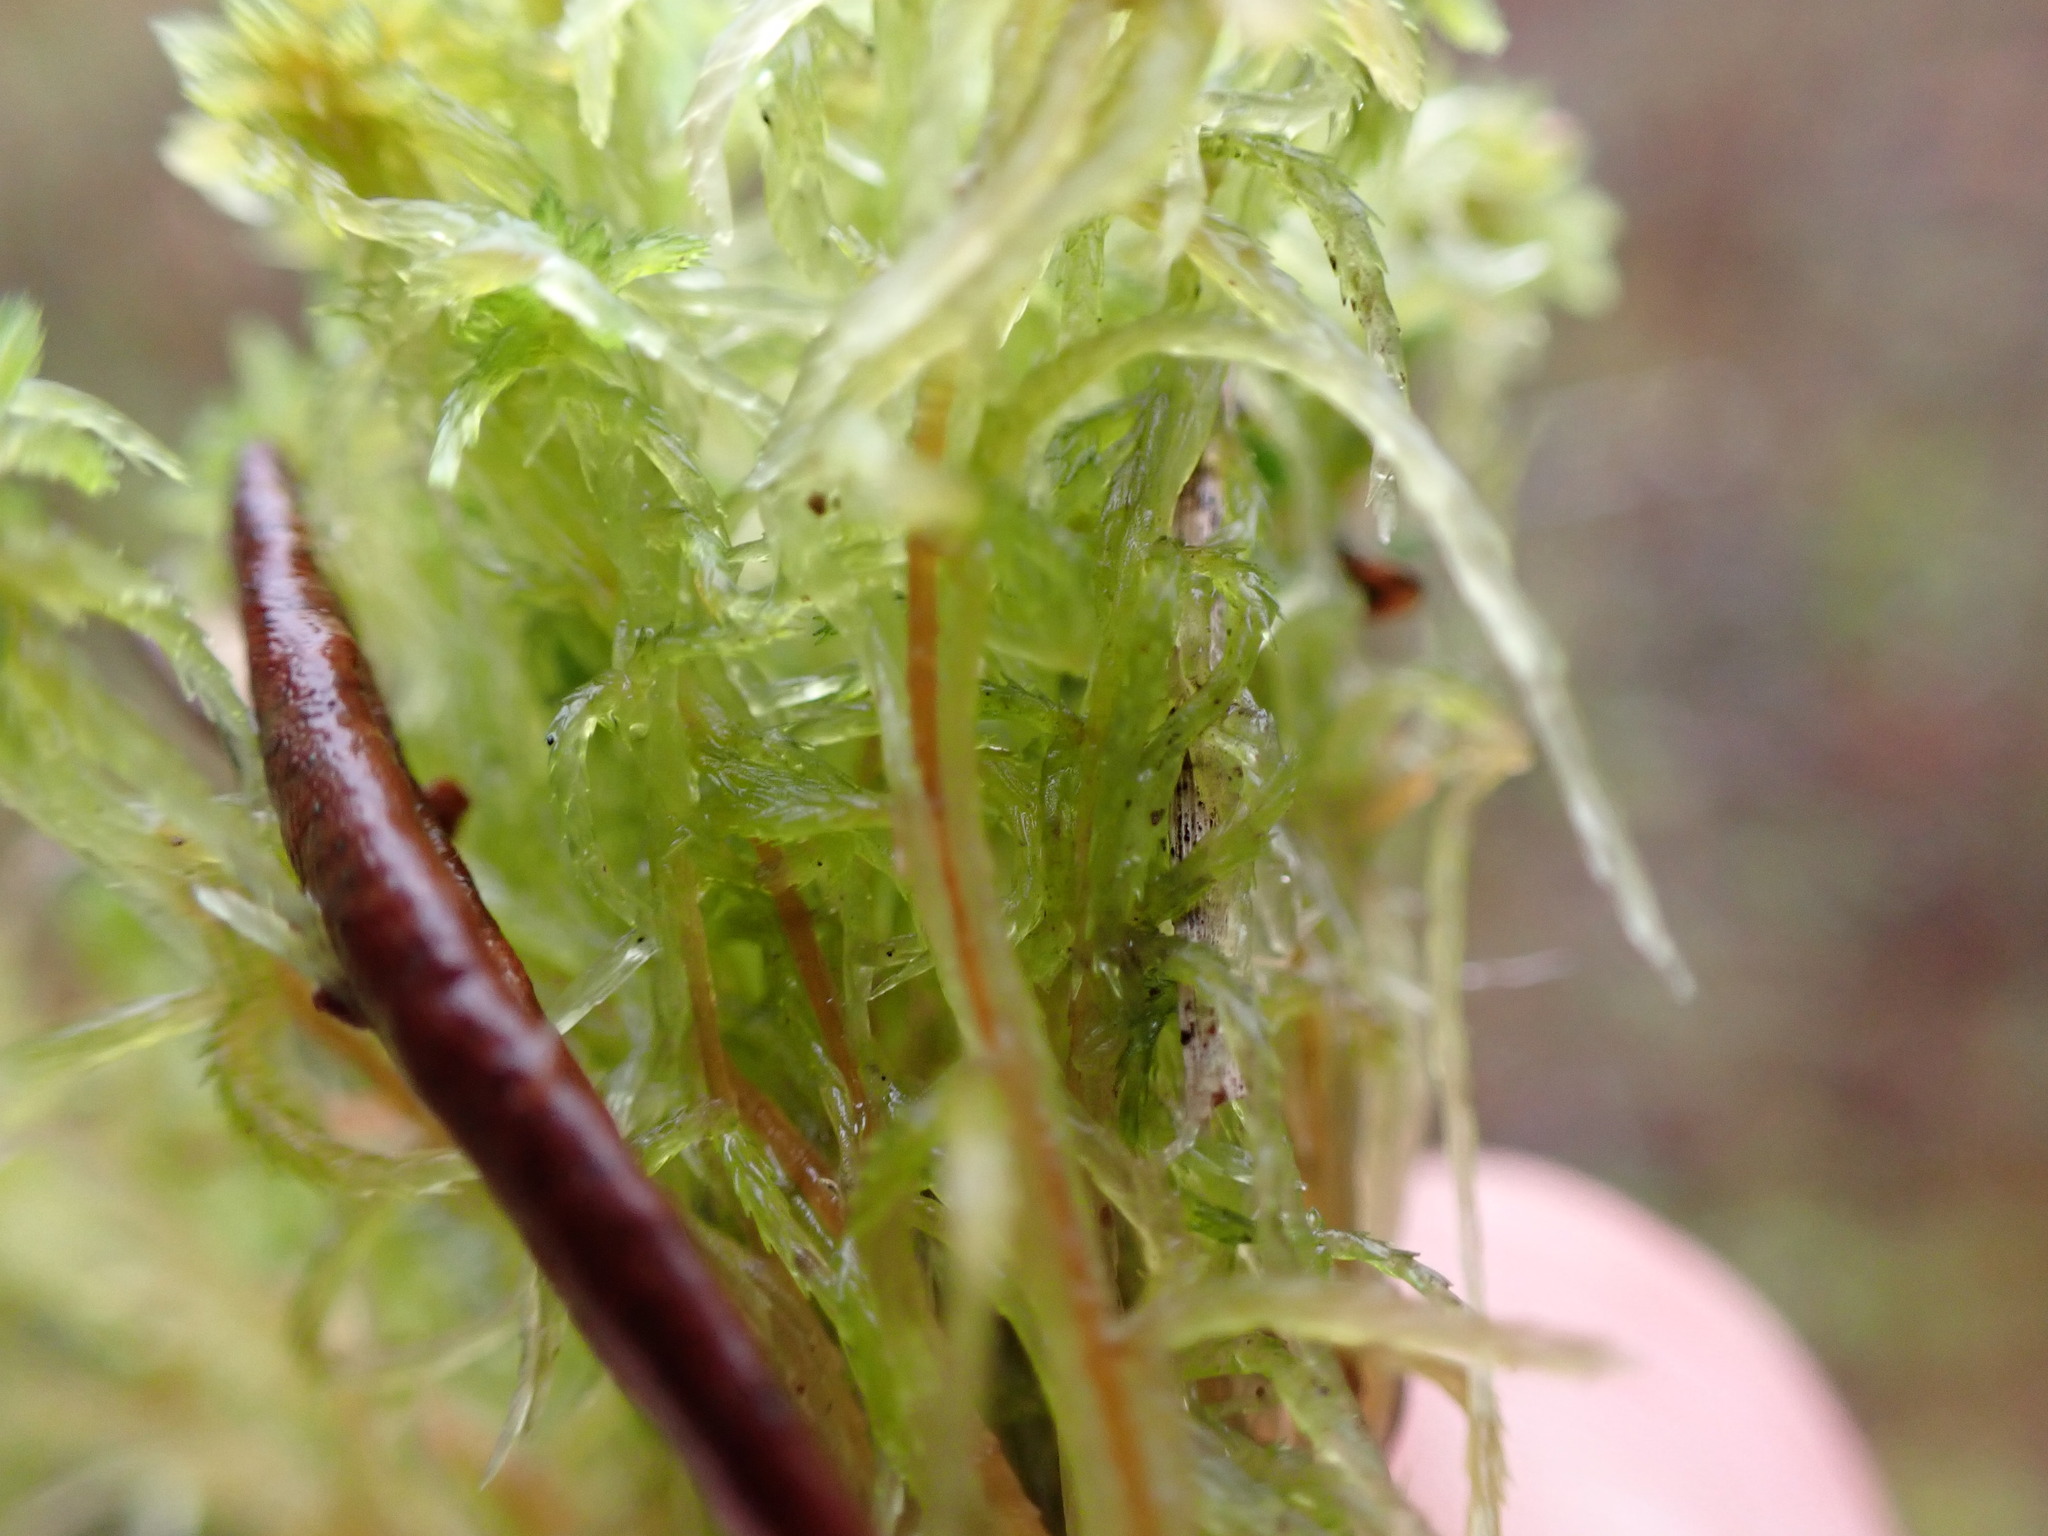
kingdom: Plantae
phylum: Bryophyta
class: Sphagnopsida
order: Sphagnales
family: Sphagnaceae
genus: Sphagnum
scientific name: Sphagnum pacificum
